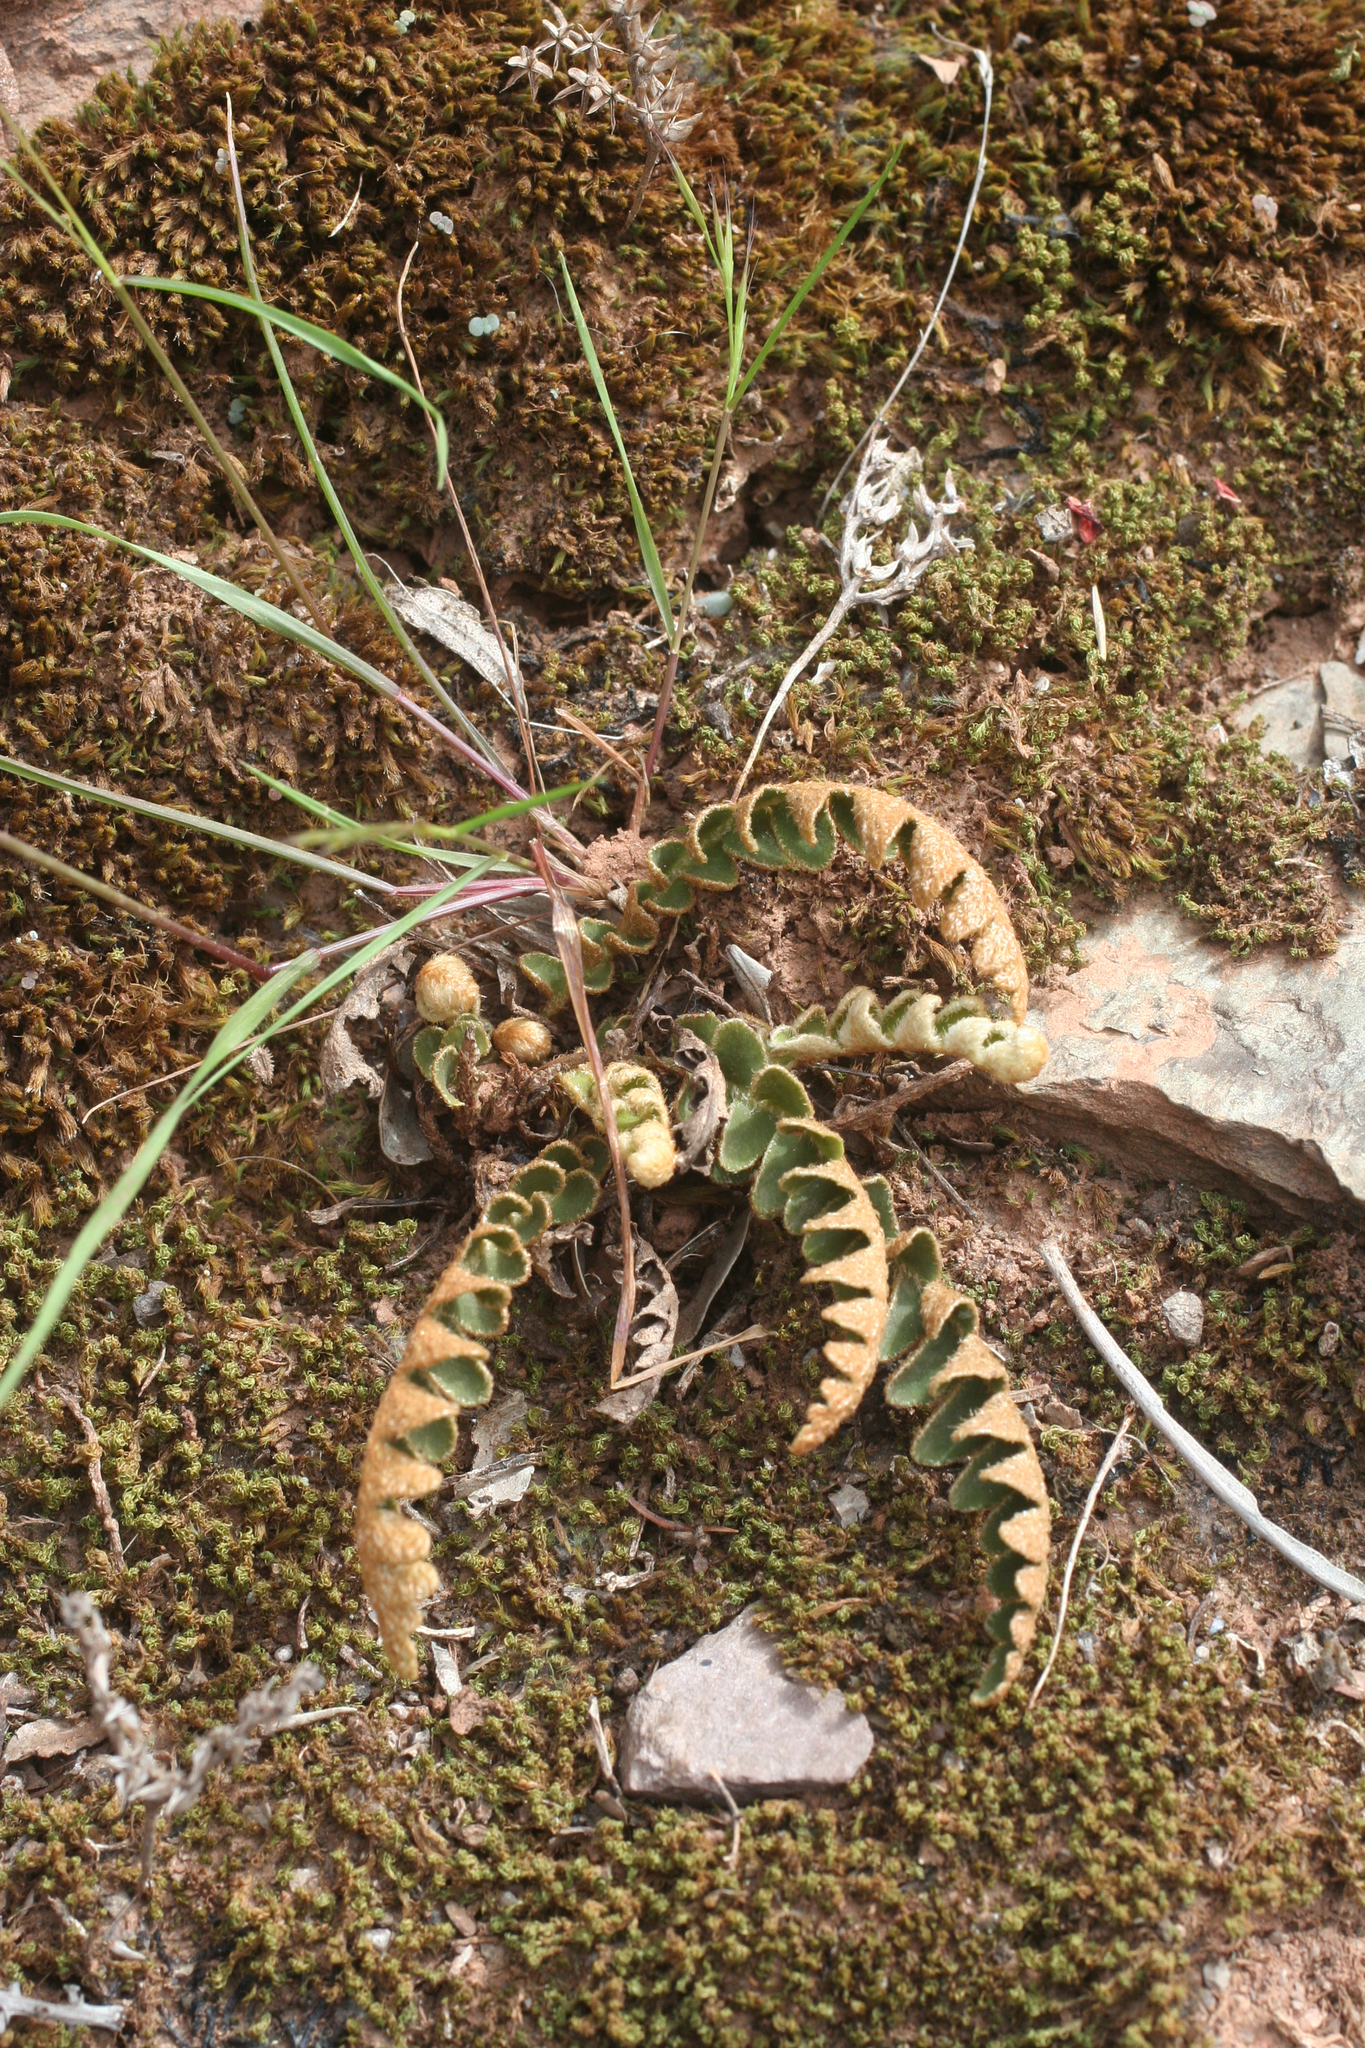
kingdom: Plantae
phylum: Tracheophyta
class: Polypodiopsida
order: Polypodiales
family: Aspleniaceae
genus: Asplenium
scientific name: Asplenium ceterach
